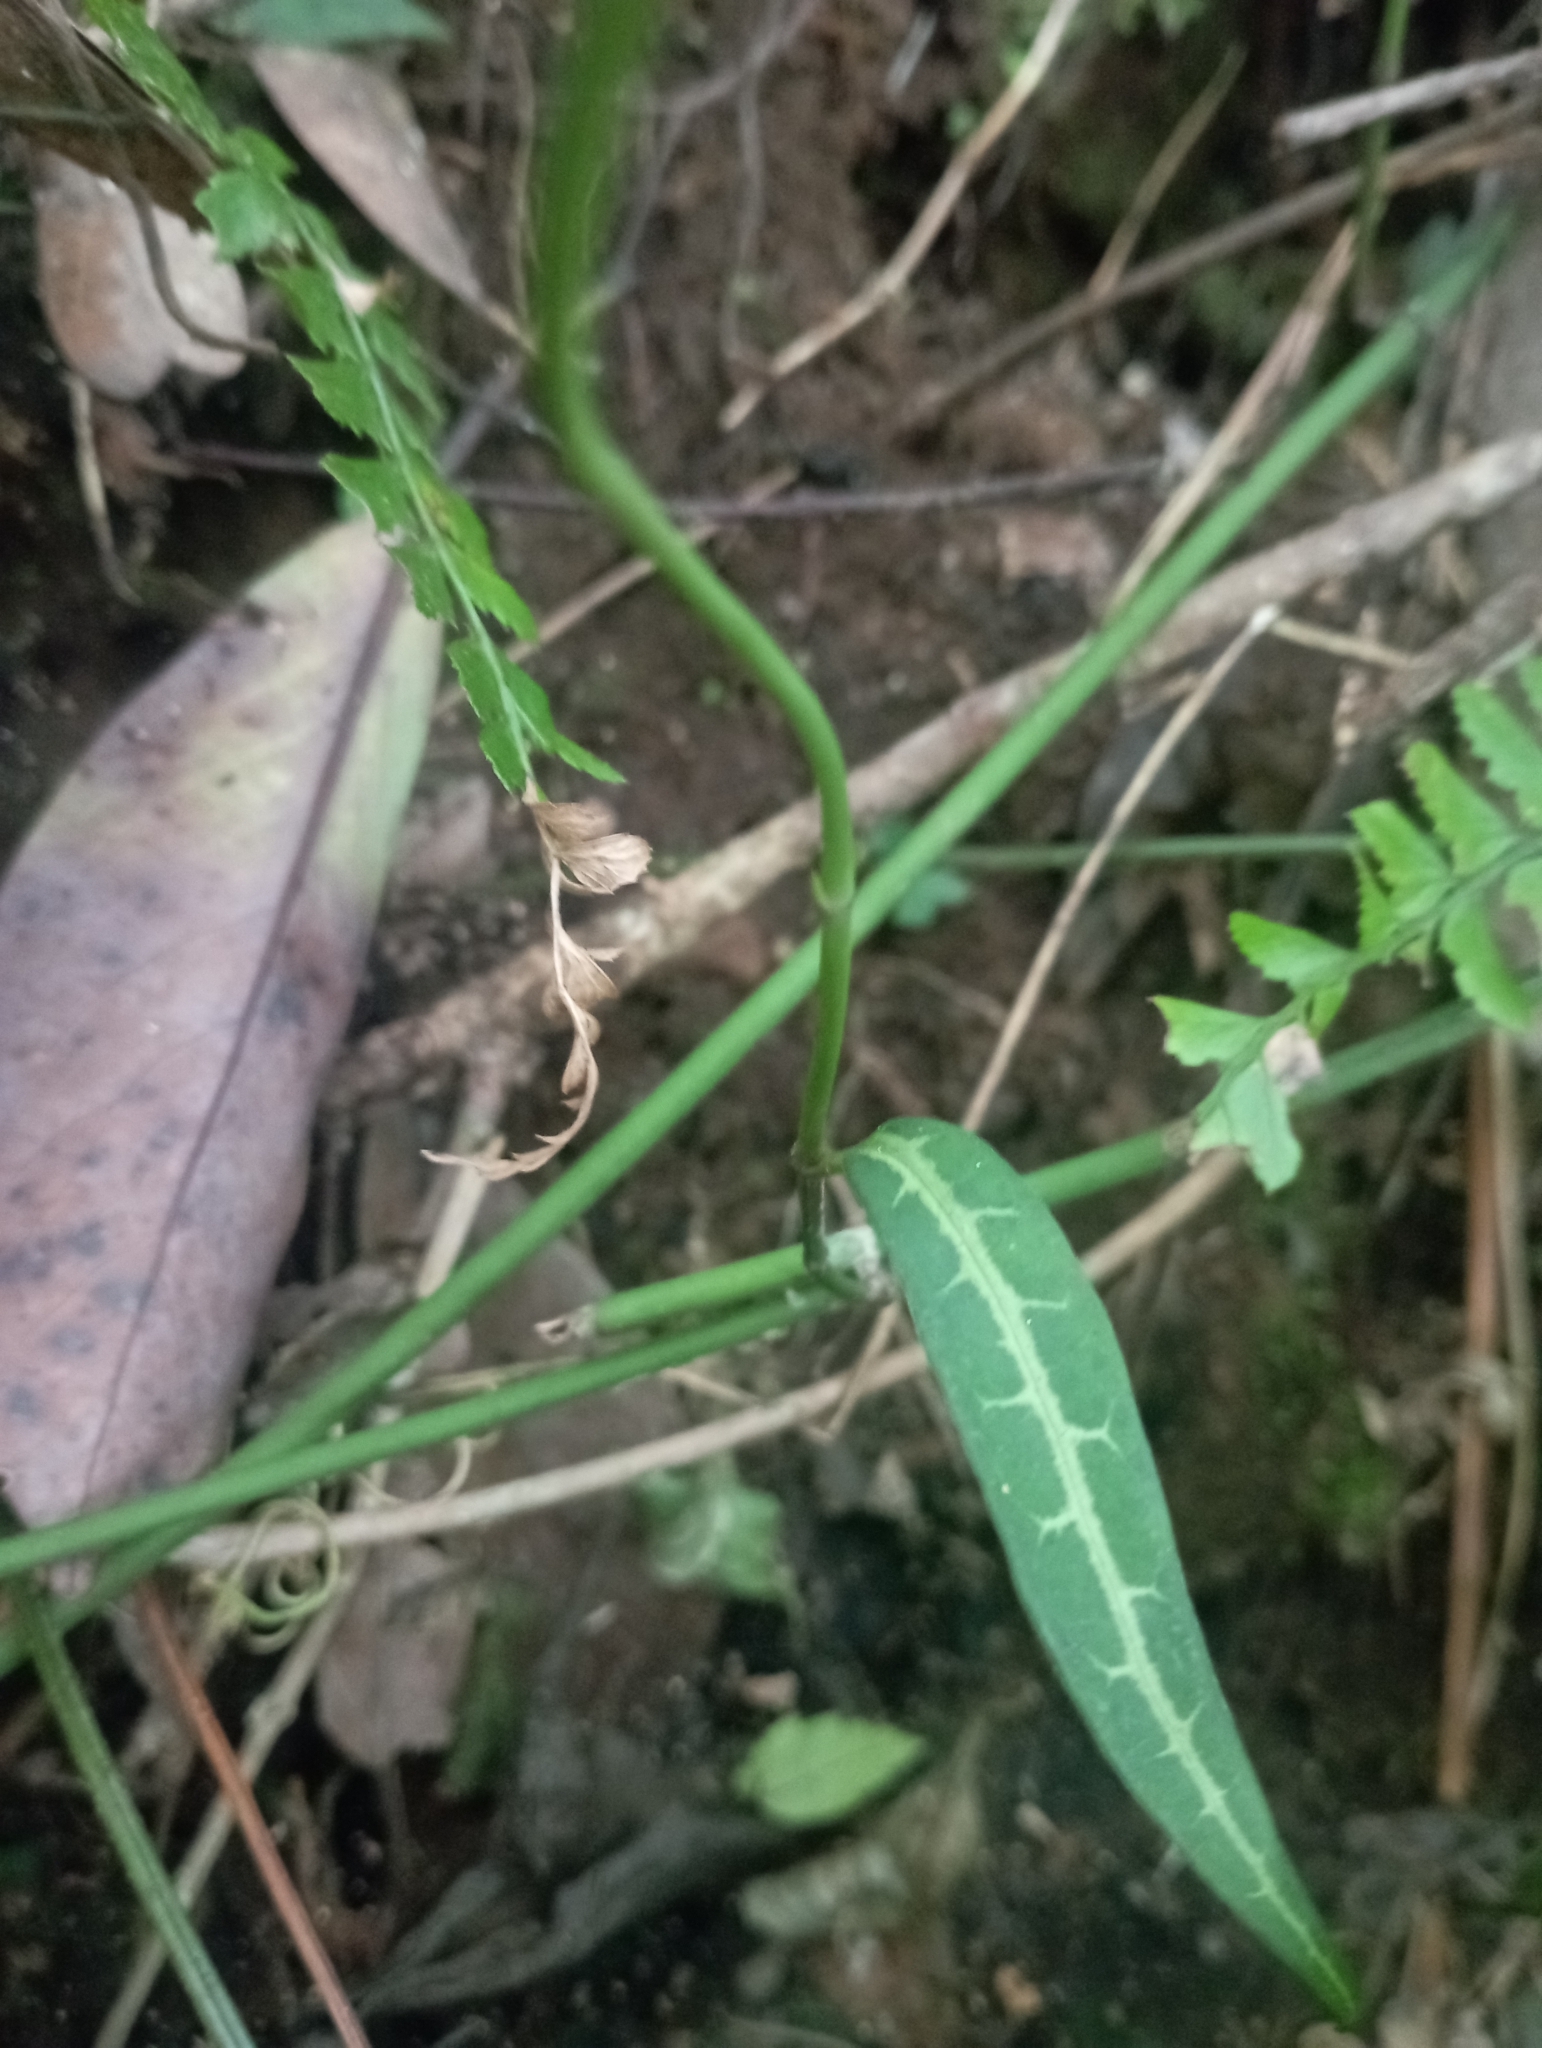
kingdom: Plantae
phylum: Tracheophyta
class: Magnoliopsida
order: Gentianales
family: Loganiaceae
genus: Gardneria
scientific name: Gardneria multiflora
